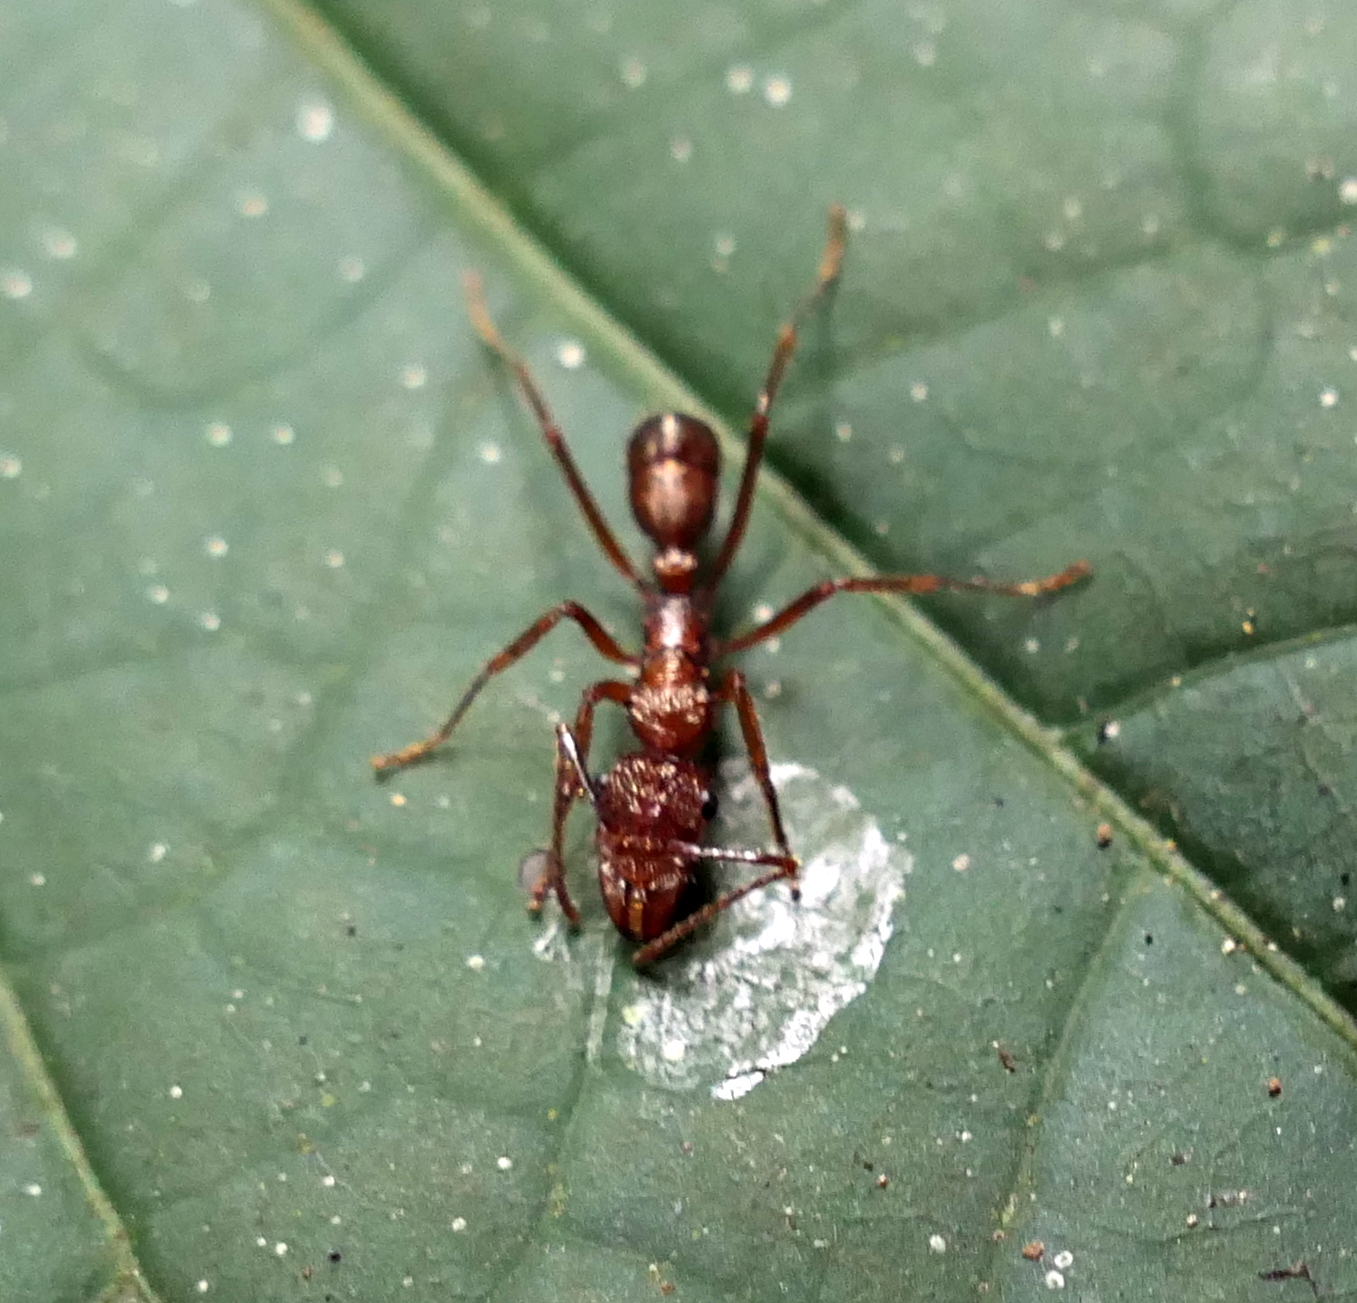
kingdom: Animalia
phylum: Arthropoda
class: Insecta
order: Hymenoptera
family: Formicidae
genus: Ectatomma
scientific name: Ectatomma tuberculatum
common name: Ant
